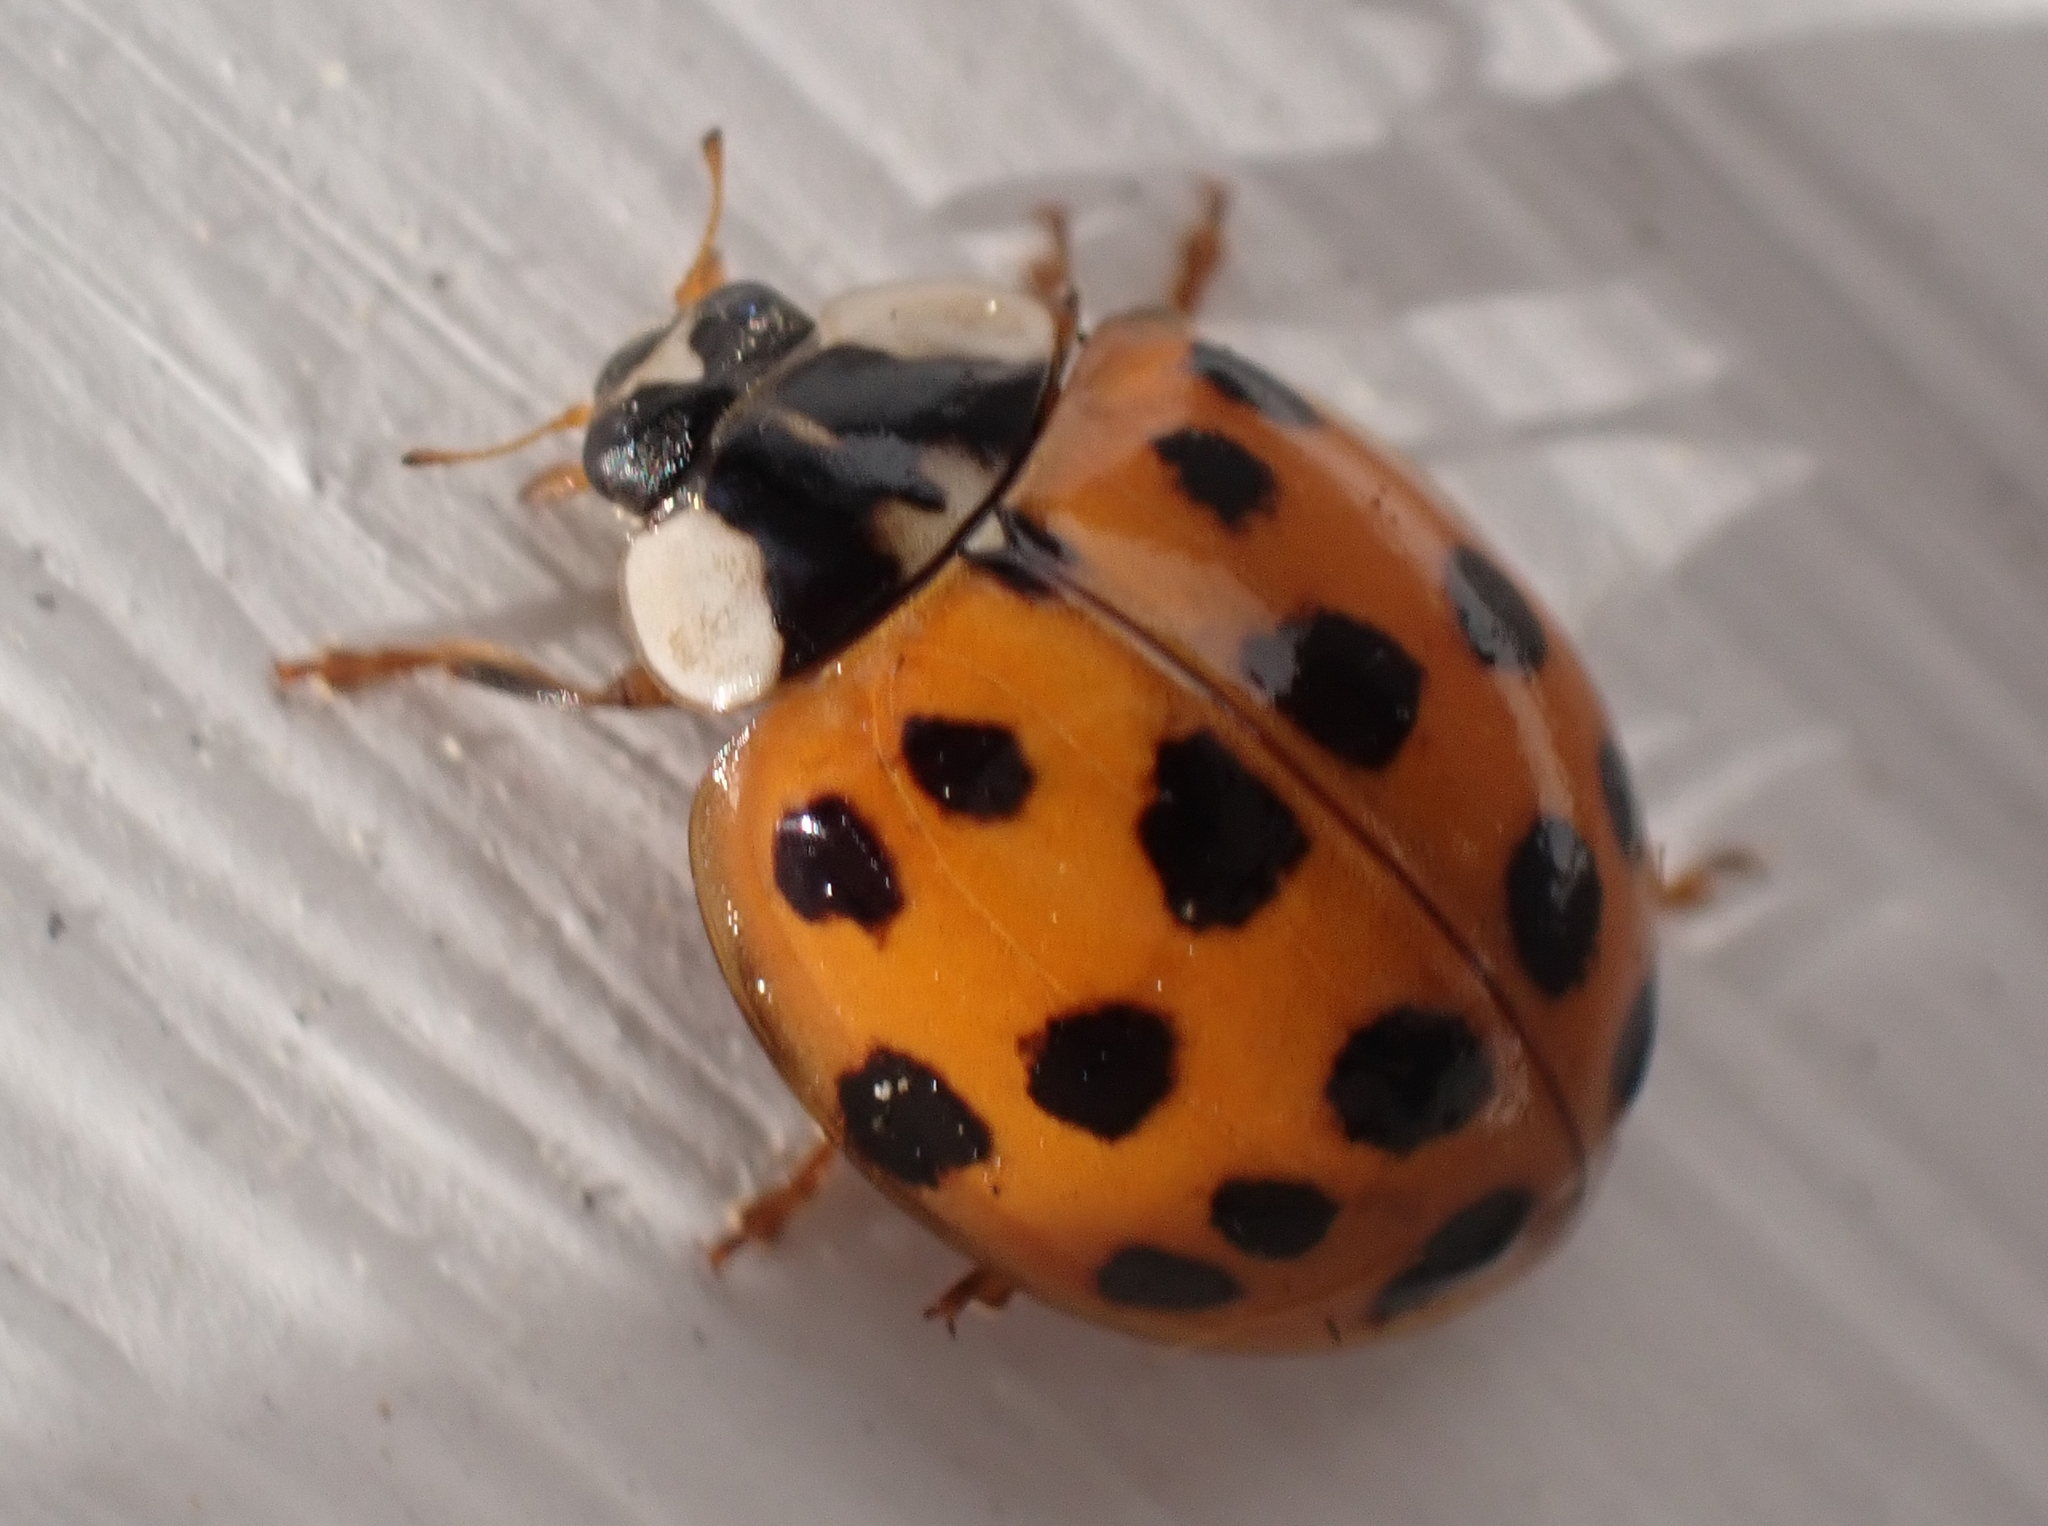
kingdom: Animalia
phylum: Arthropoda
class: Insecta
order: Coleoptera
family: Coccinellidae
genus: Harmonia
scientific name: Harmonia axyridis
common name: Harlequin ladybird
